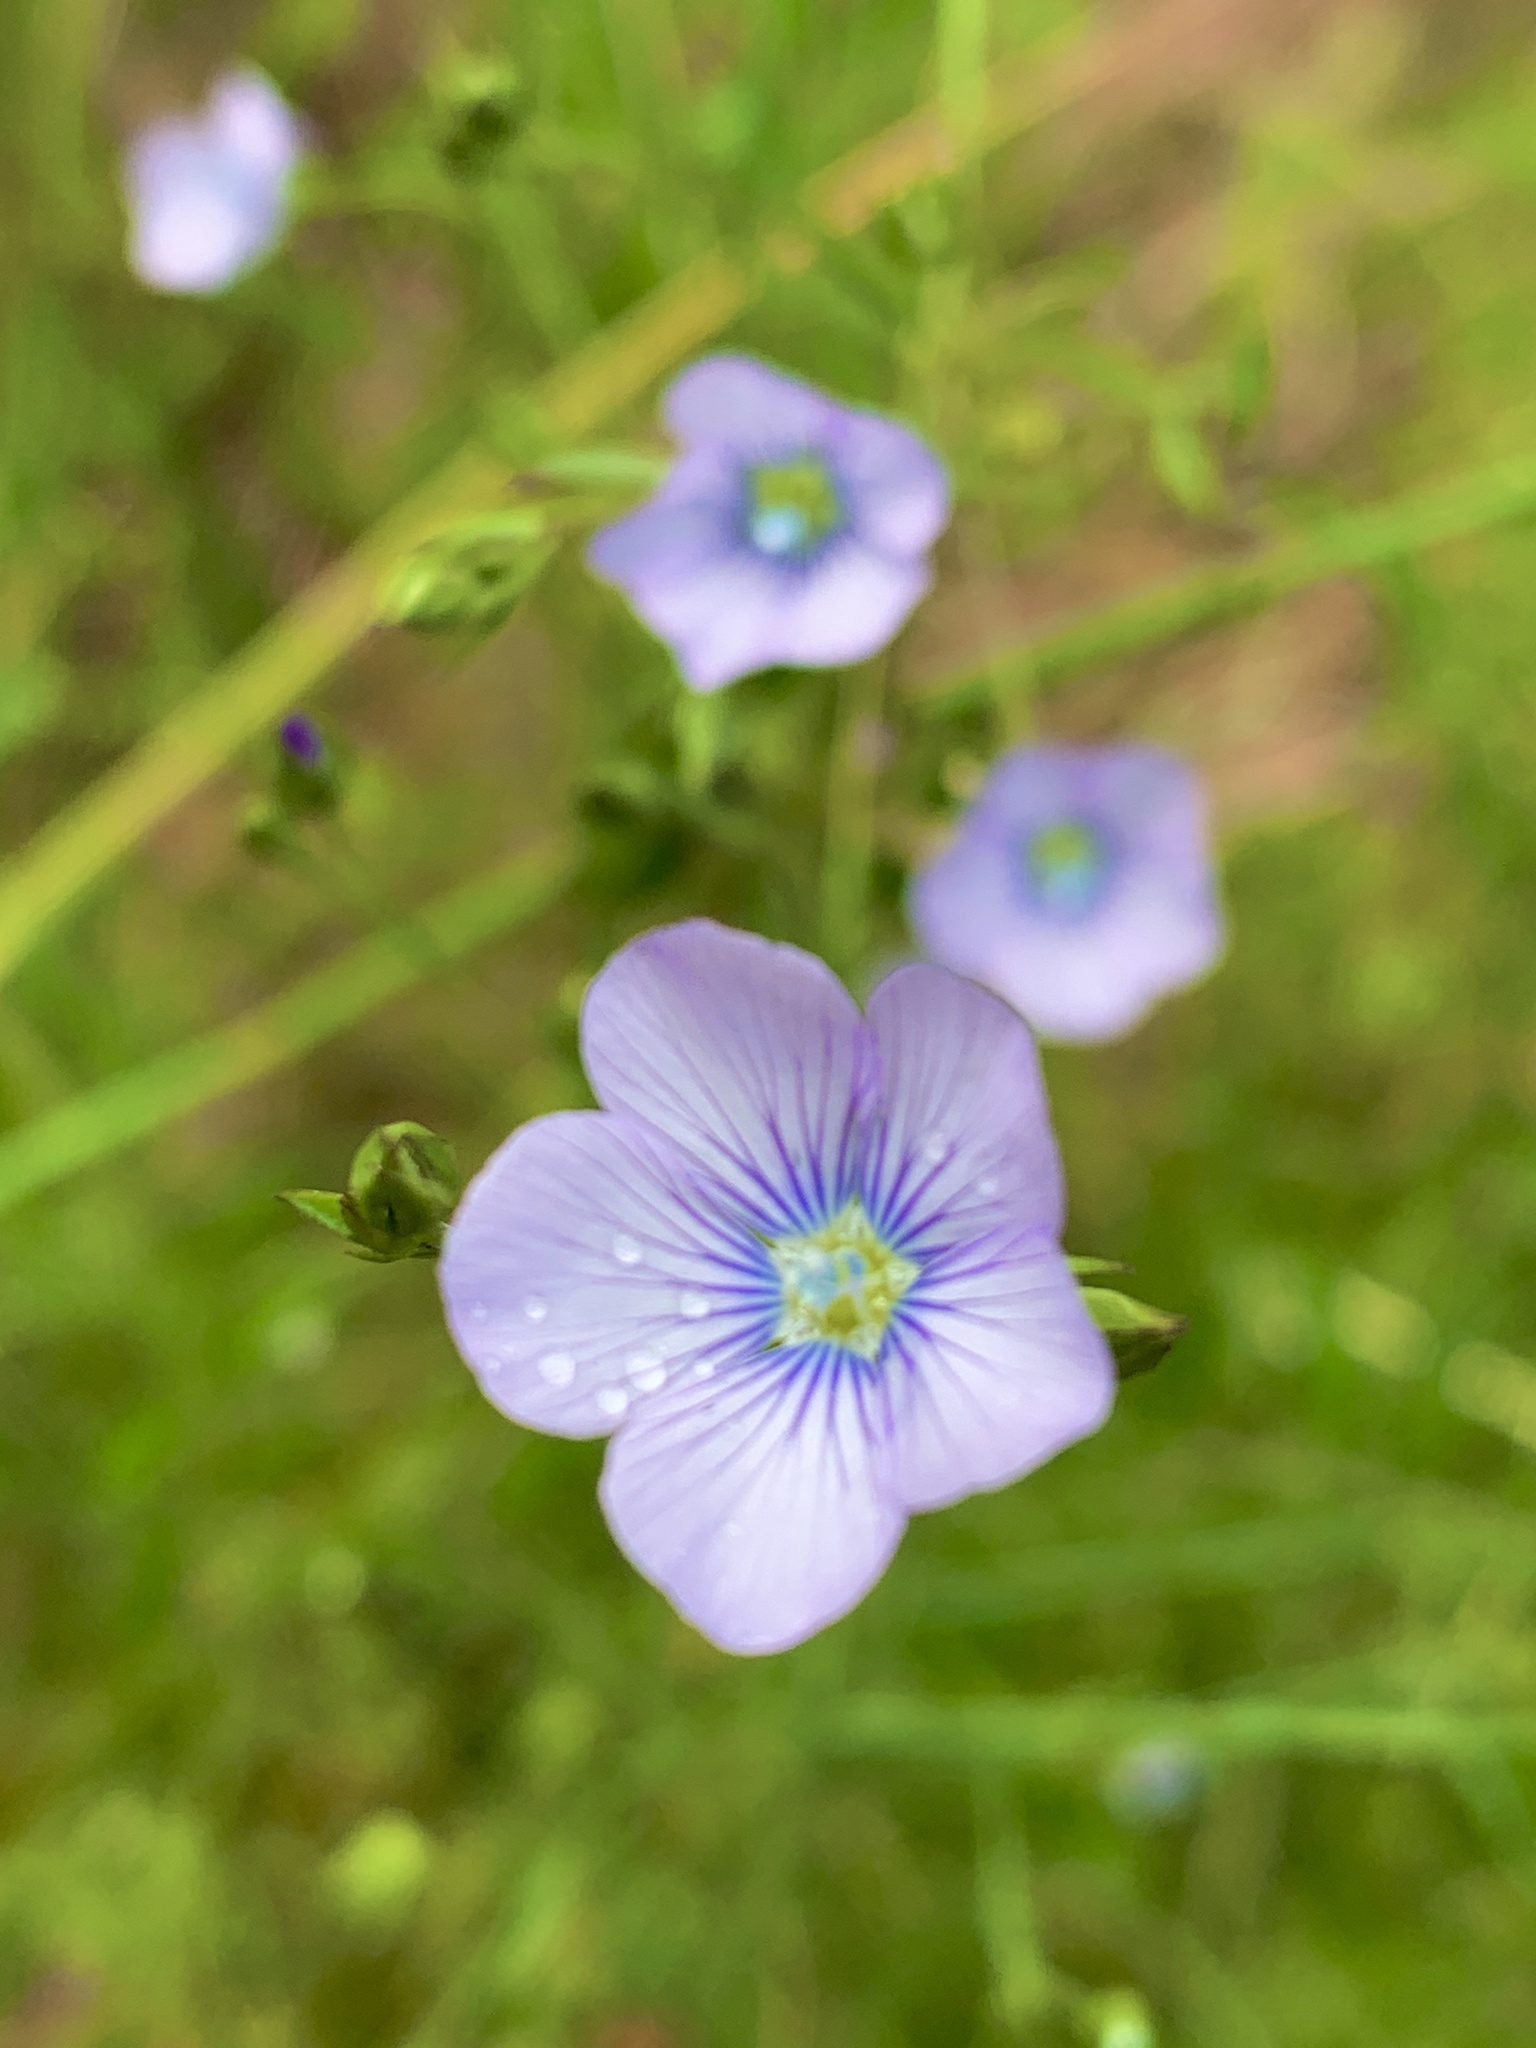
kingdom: Plantae
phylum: Tracheophyta
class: Magnoliopsida
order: Malpighiales
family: Linaceae
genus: Linum
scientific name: Linum usitatissimum
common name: Flax
